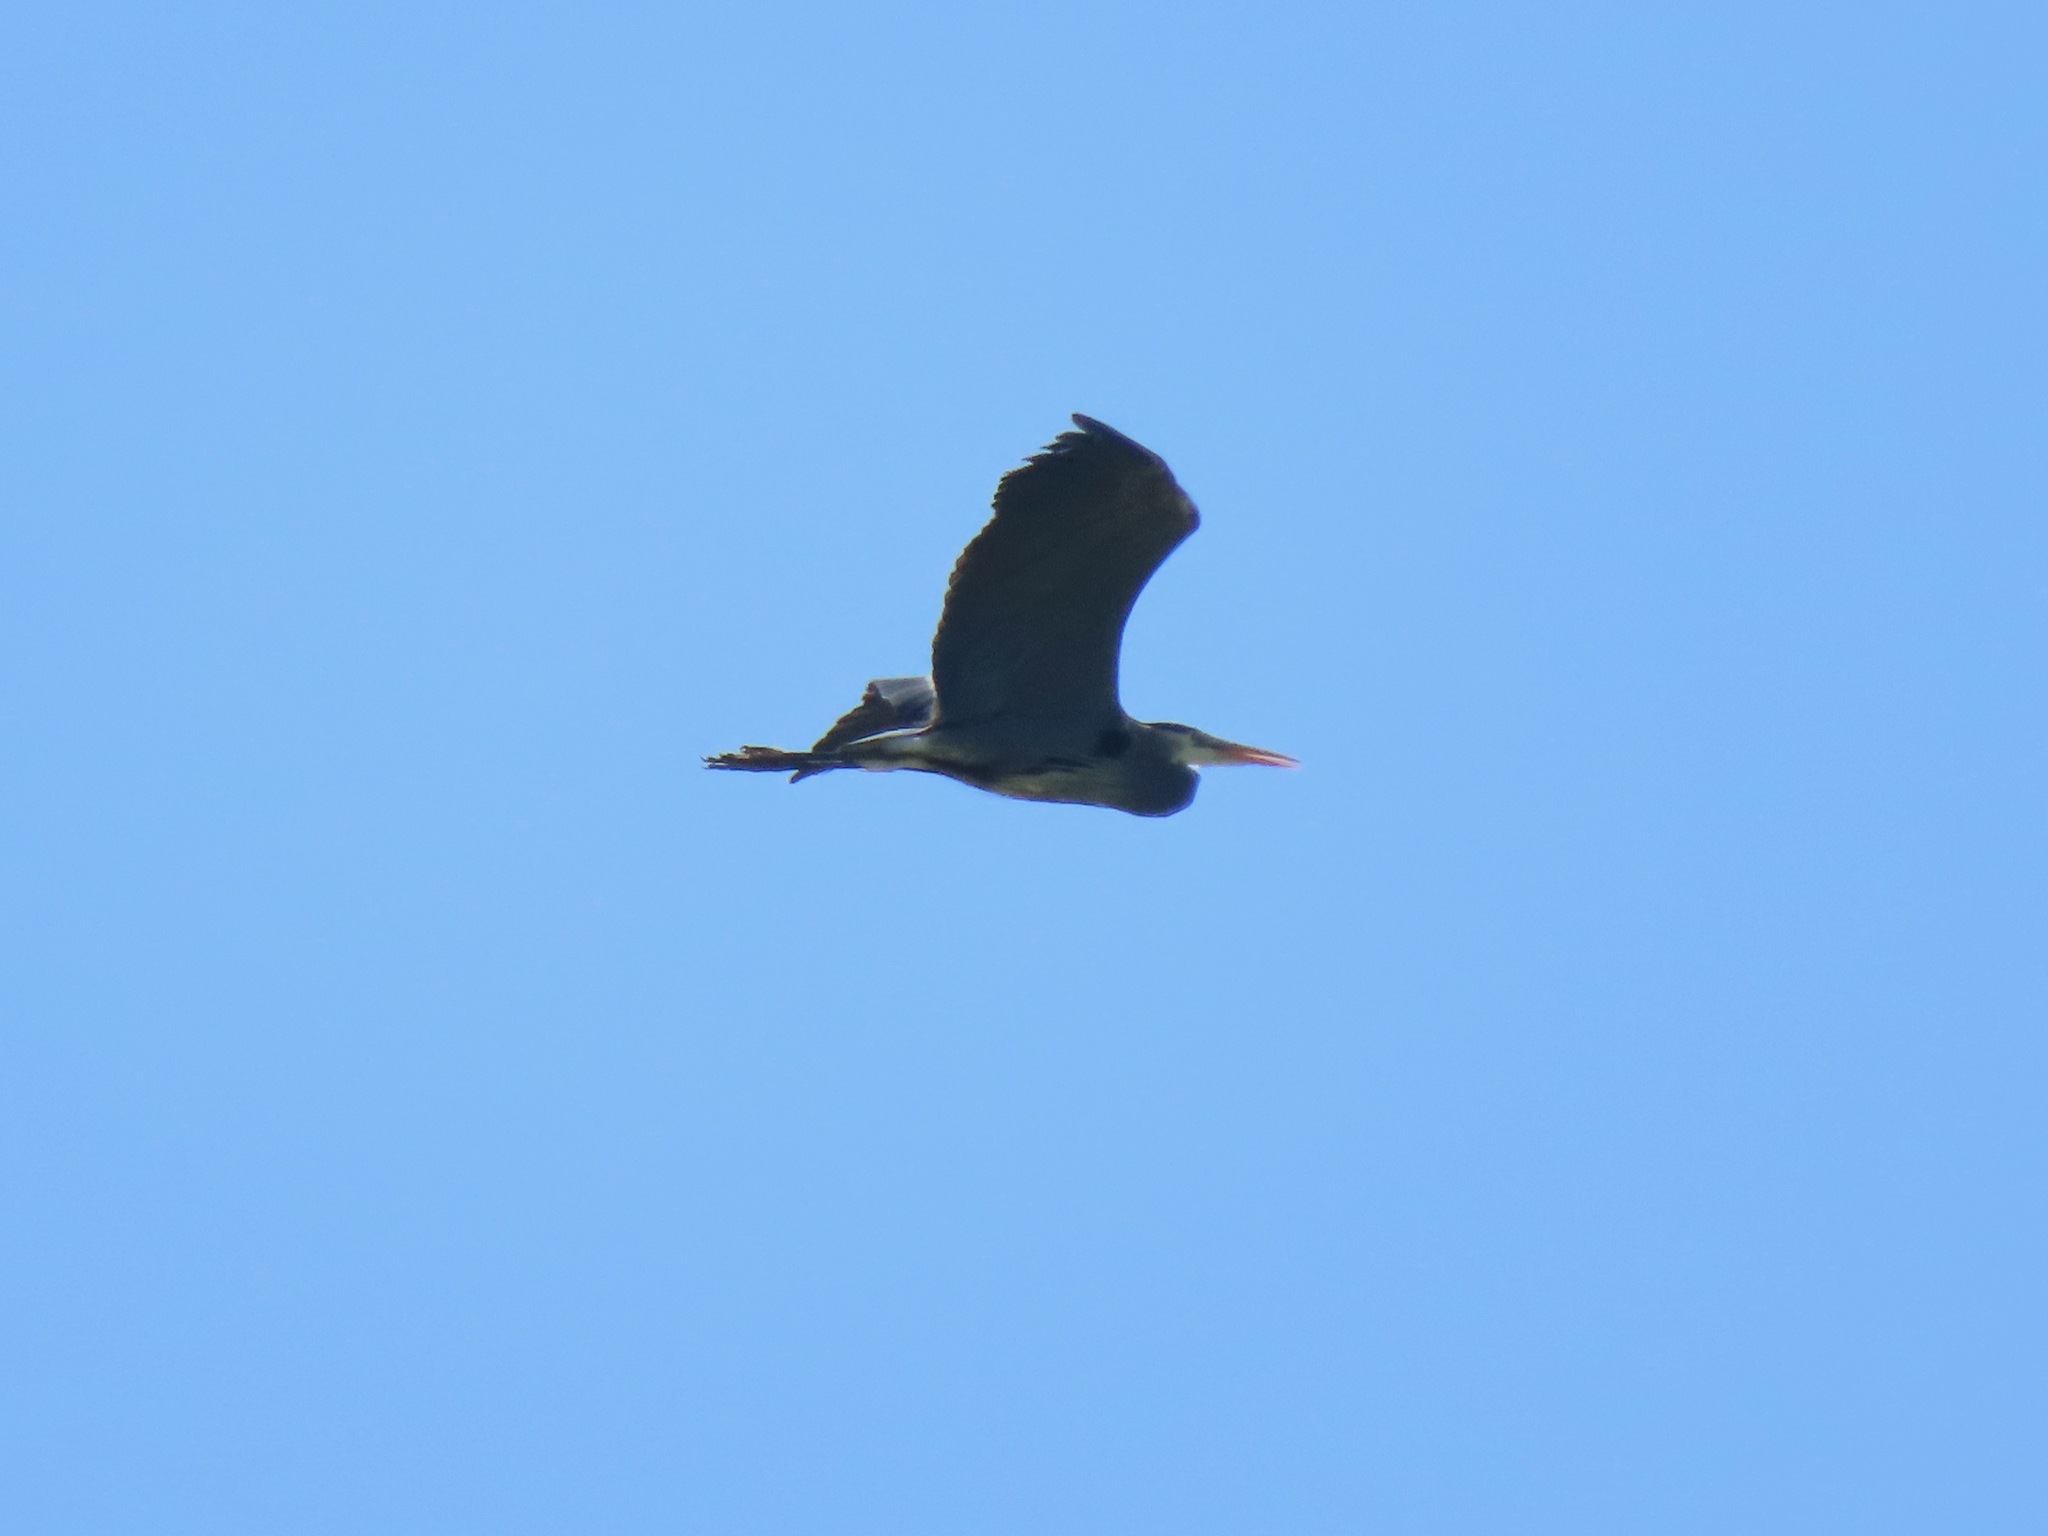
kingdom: Animalia
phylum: Chordata
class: Aves
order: Pelecaniformes
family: Ardeidae
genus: Ardea
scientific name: Ardea herodias
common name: Great blue heron
